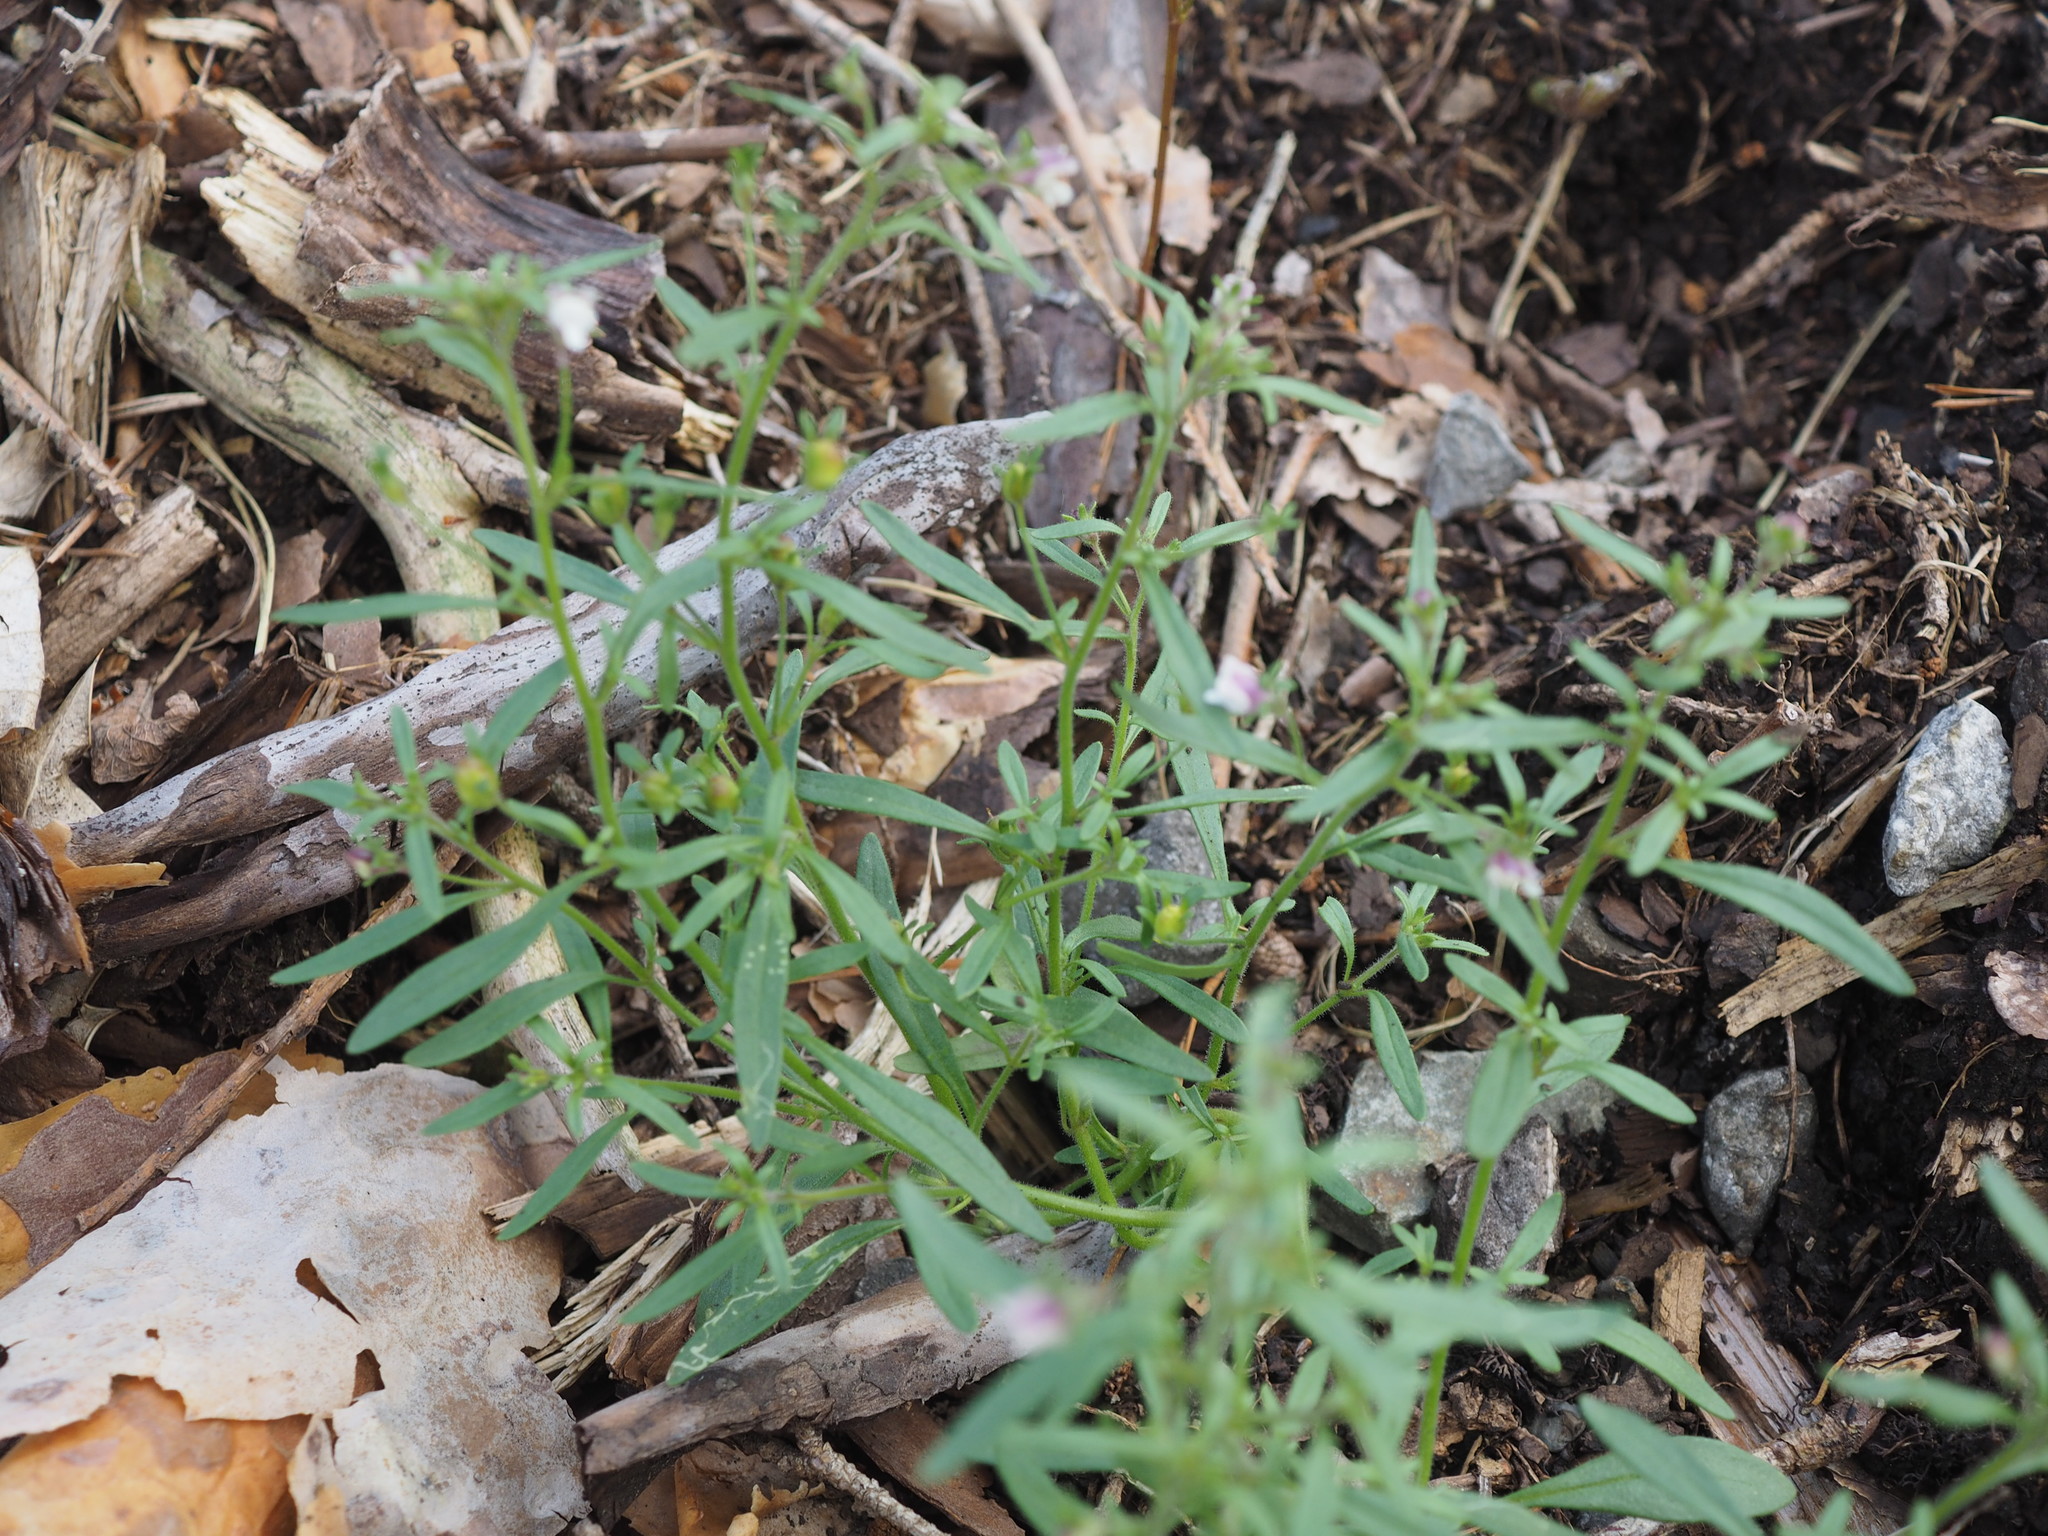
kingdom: Plantae
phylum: Tracheophyta
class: Magnoliopsida
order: Lamiales
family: Plantaginaceae
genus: Chaenorhinum
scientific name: Chaenorhinum minus
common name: Dwarf snapdragon
